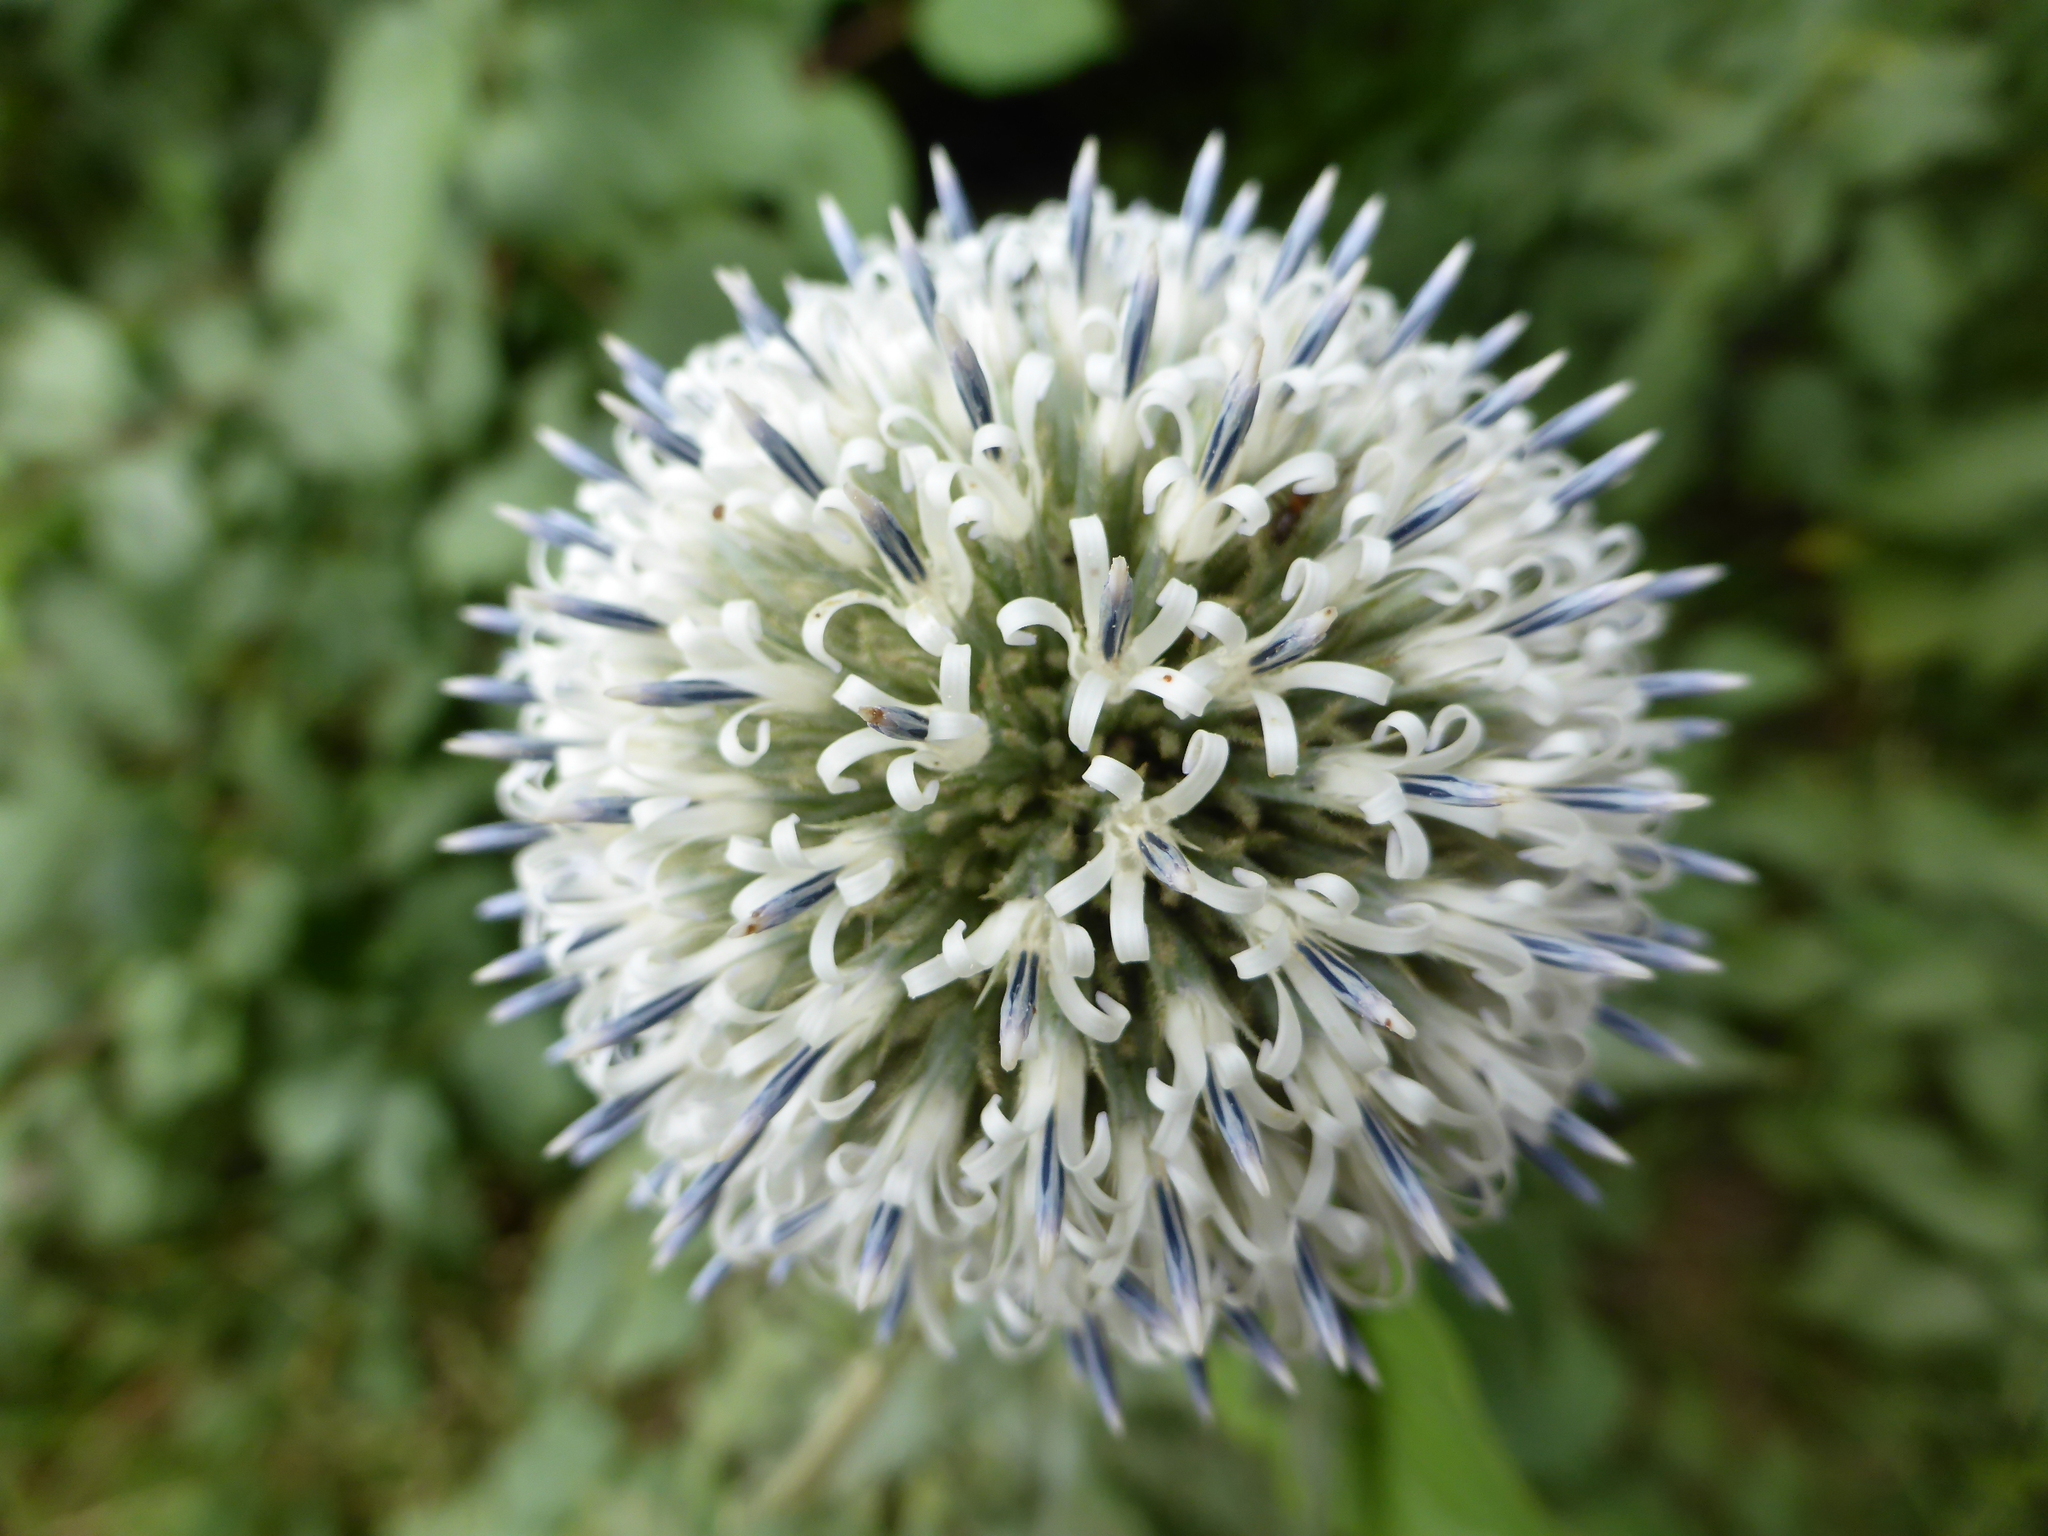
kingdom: Plantae
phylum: Tracheophyta
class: Magnoliopsida
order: Asterales
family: Asteraceae
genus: Echinops
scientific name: Echinops sphaerocephalus
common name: Glandular globe-thistle
